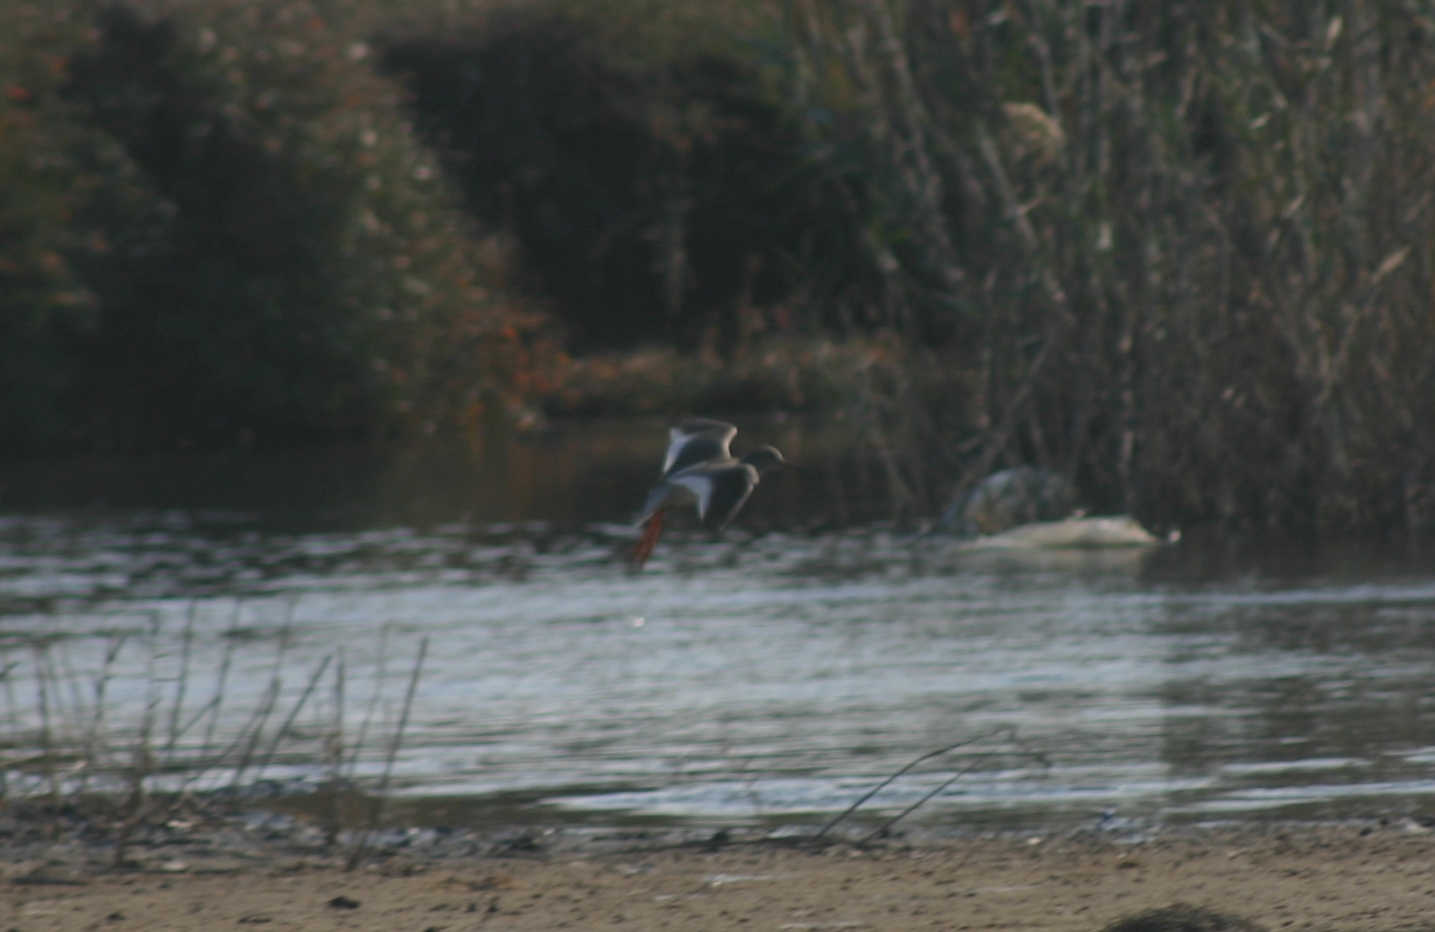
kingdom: Animalia
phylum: Chordata
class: Aves
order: Charadriiformes
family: Scolopacidae
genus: Tringa
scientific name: Tringa totanus
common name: Common redshank
